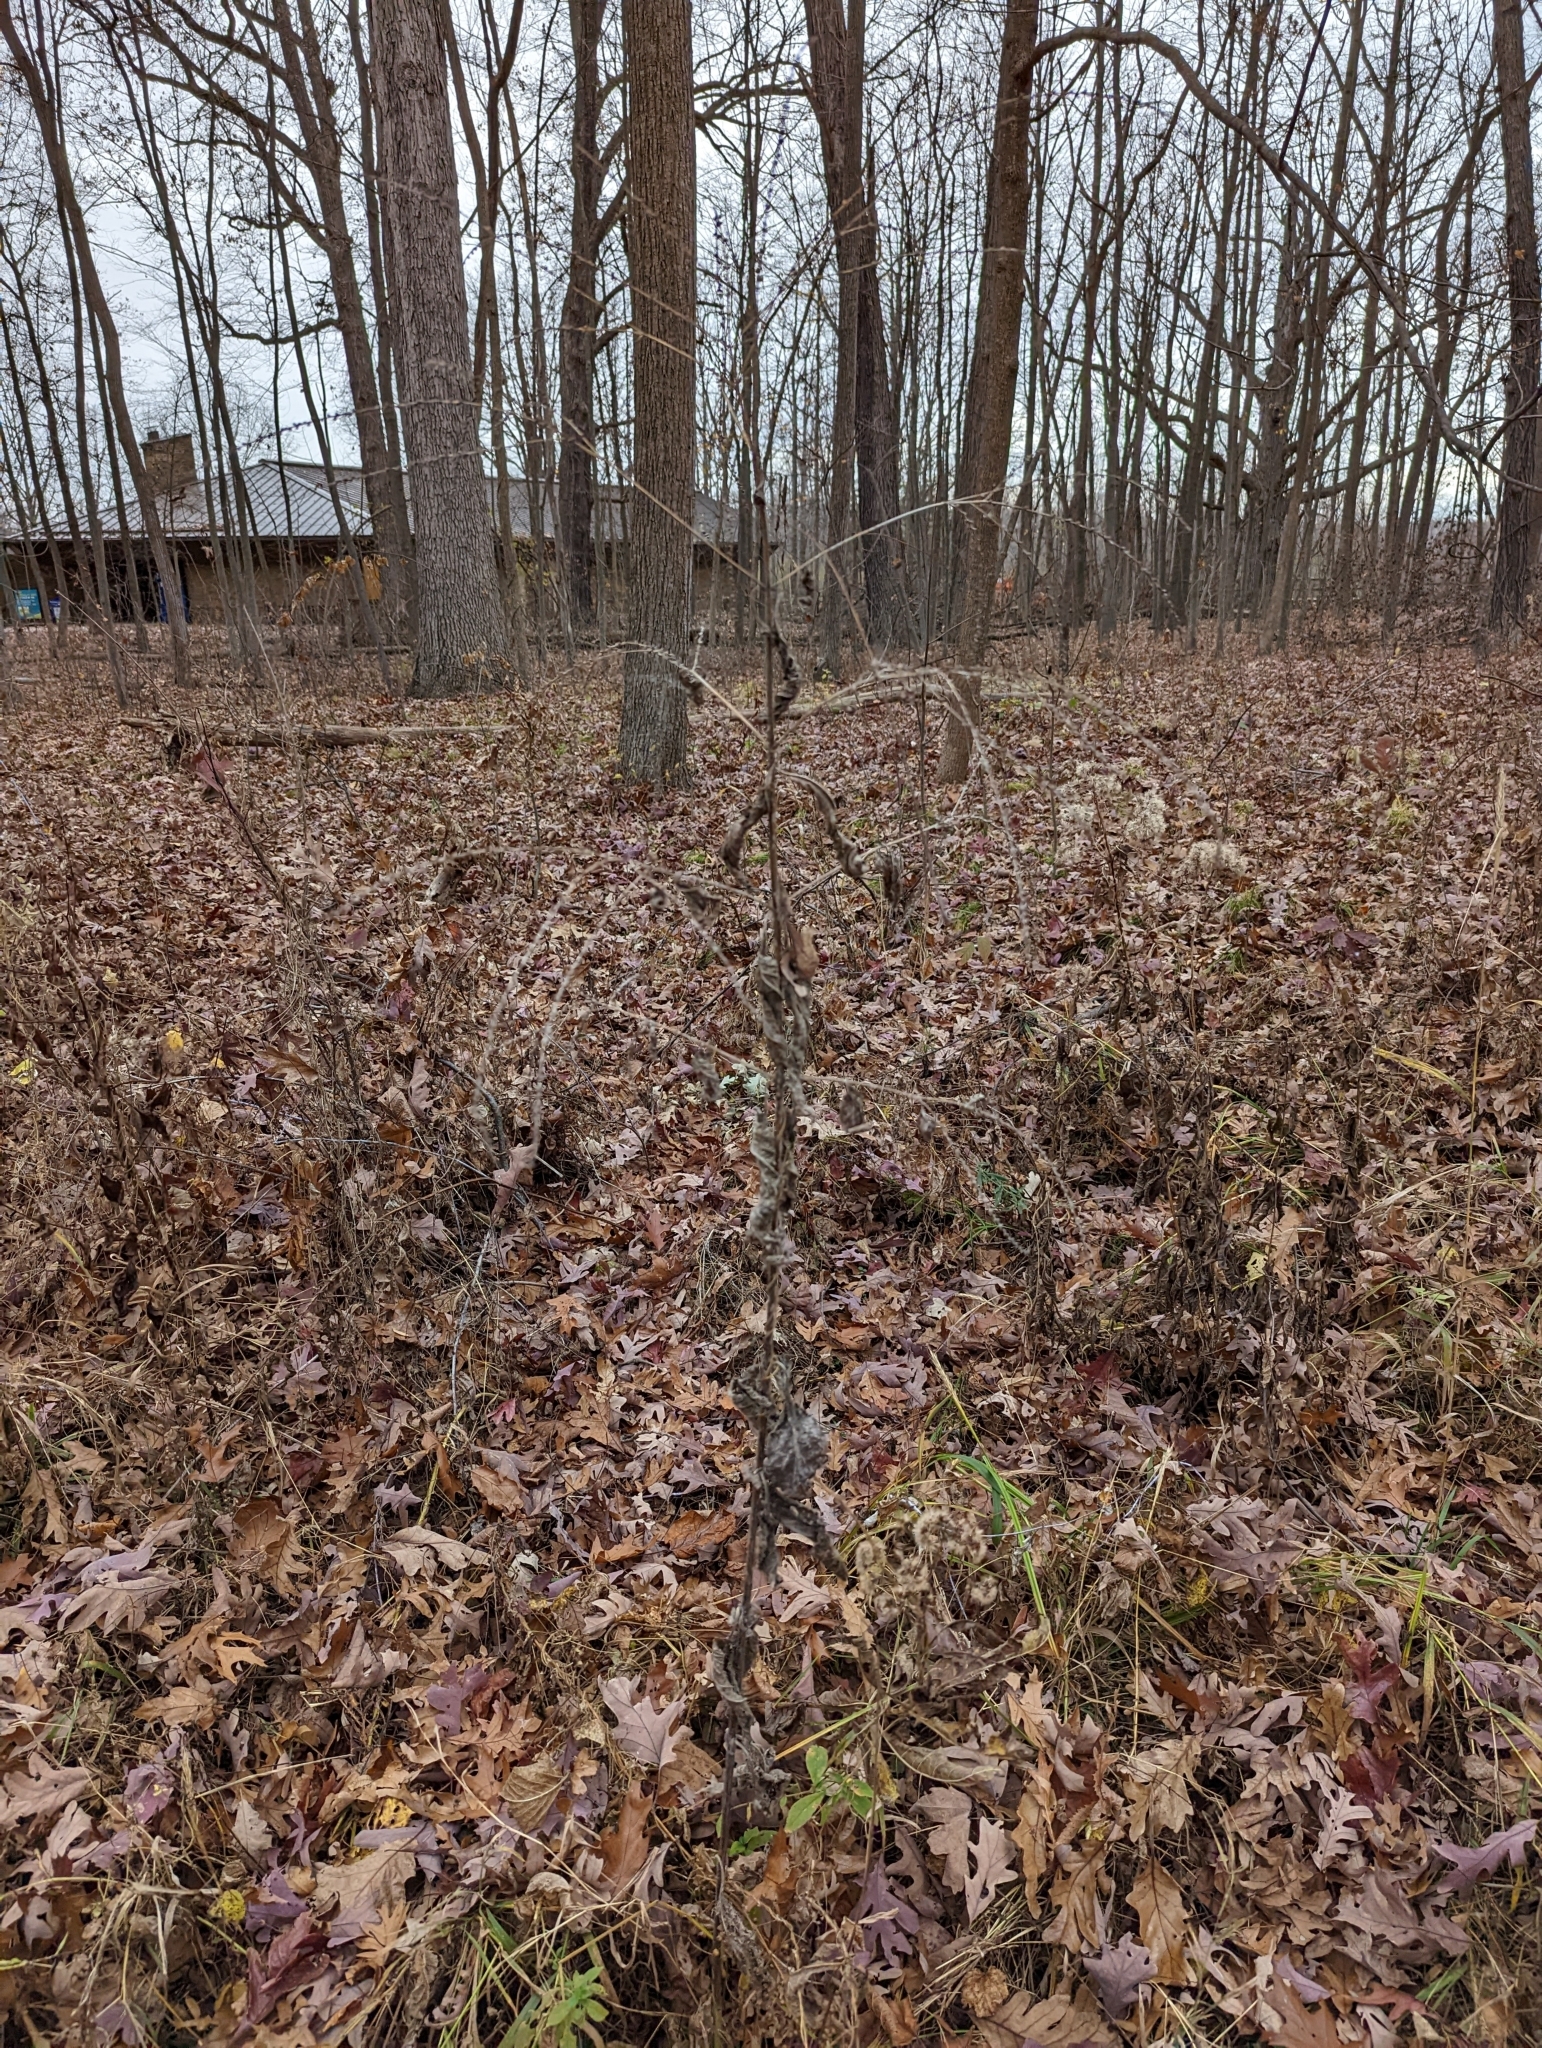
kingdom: Plantae
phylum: Tracheophyta
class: Magnoliopsida
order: Lamiales
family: Verbenaceae
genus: Verbena
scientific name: Verbena urticifolia
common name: Nettle-leaved vervain
